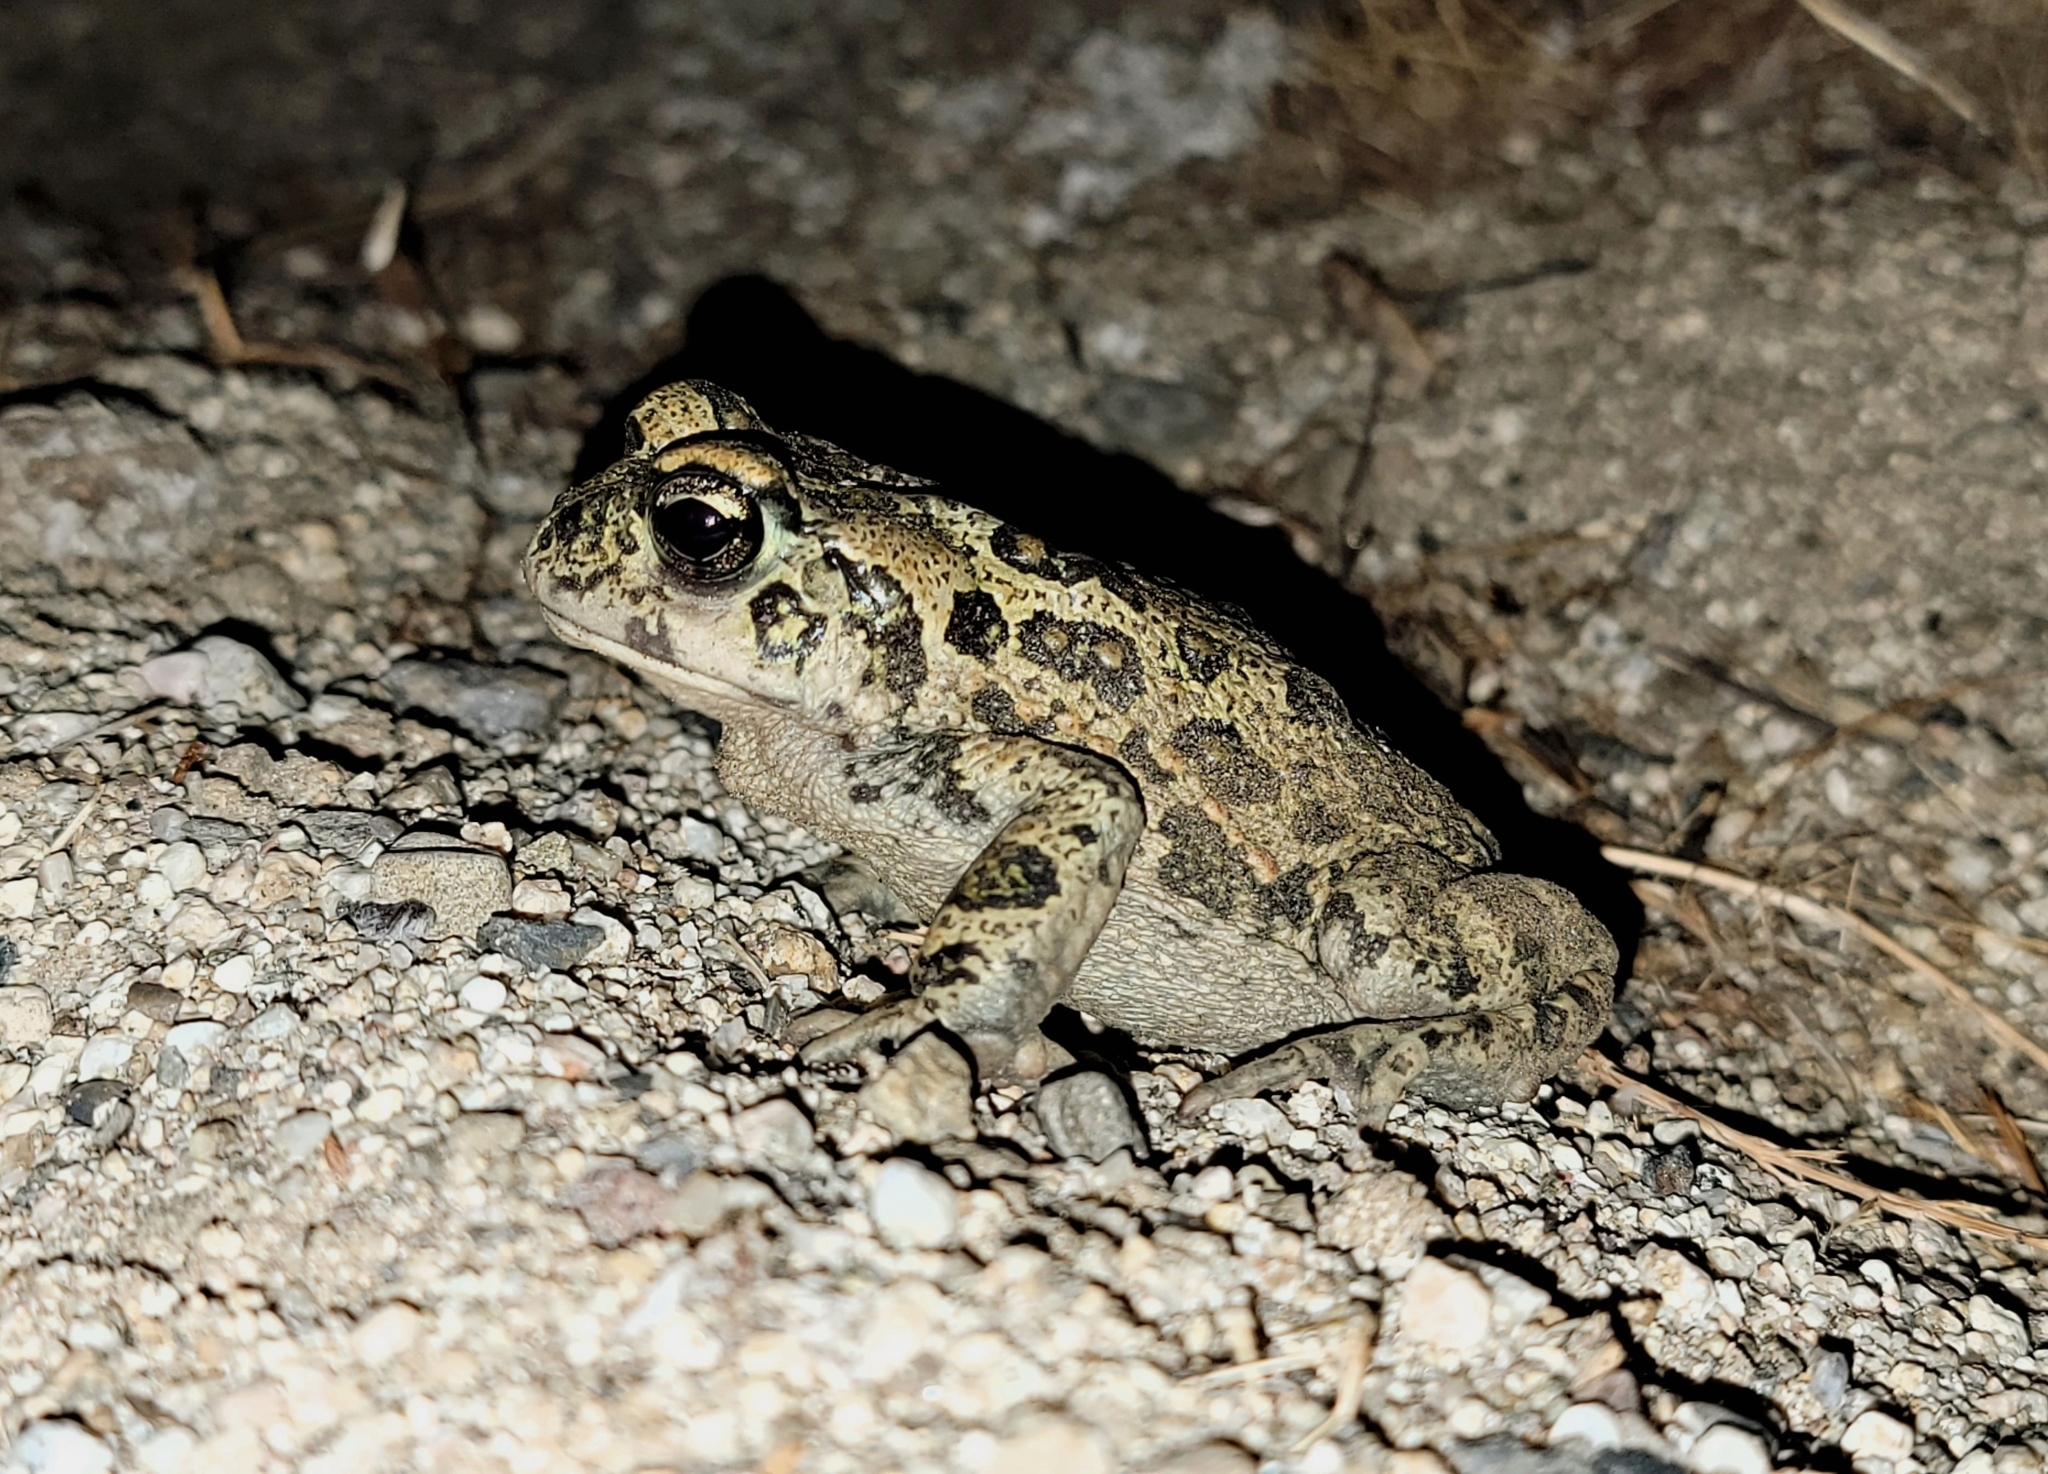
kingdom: Animalia
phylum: Chordata
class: Amphibia
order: Anura
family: Bufonidae
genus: Anaxyrus
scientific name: Anaxyrus boreas
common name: Western toad
